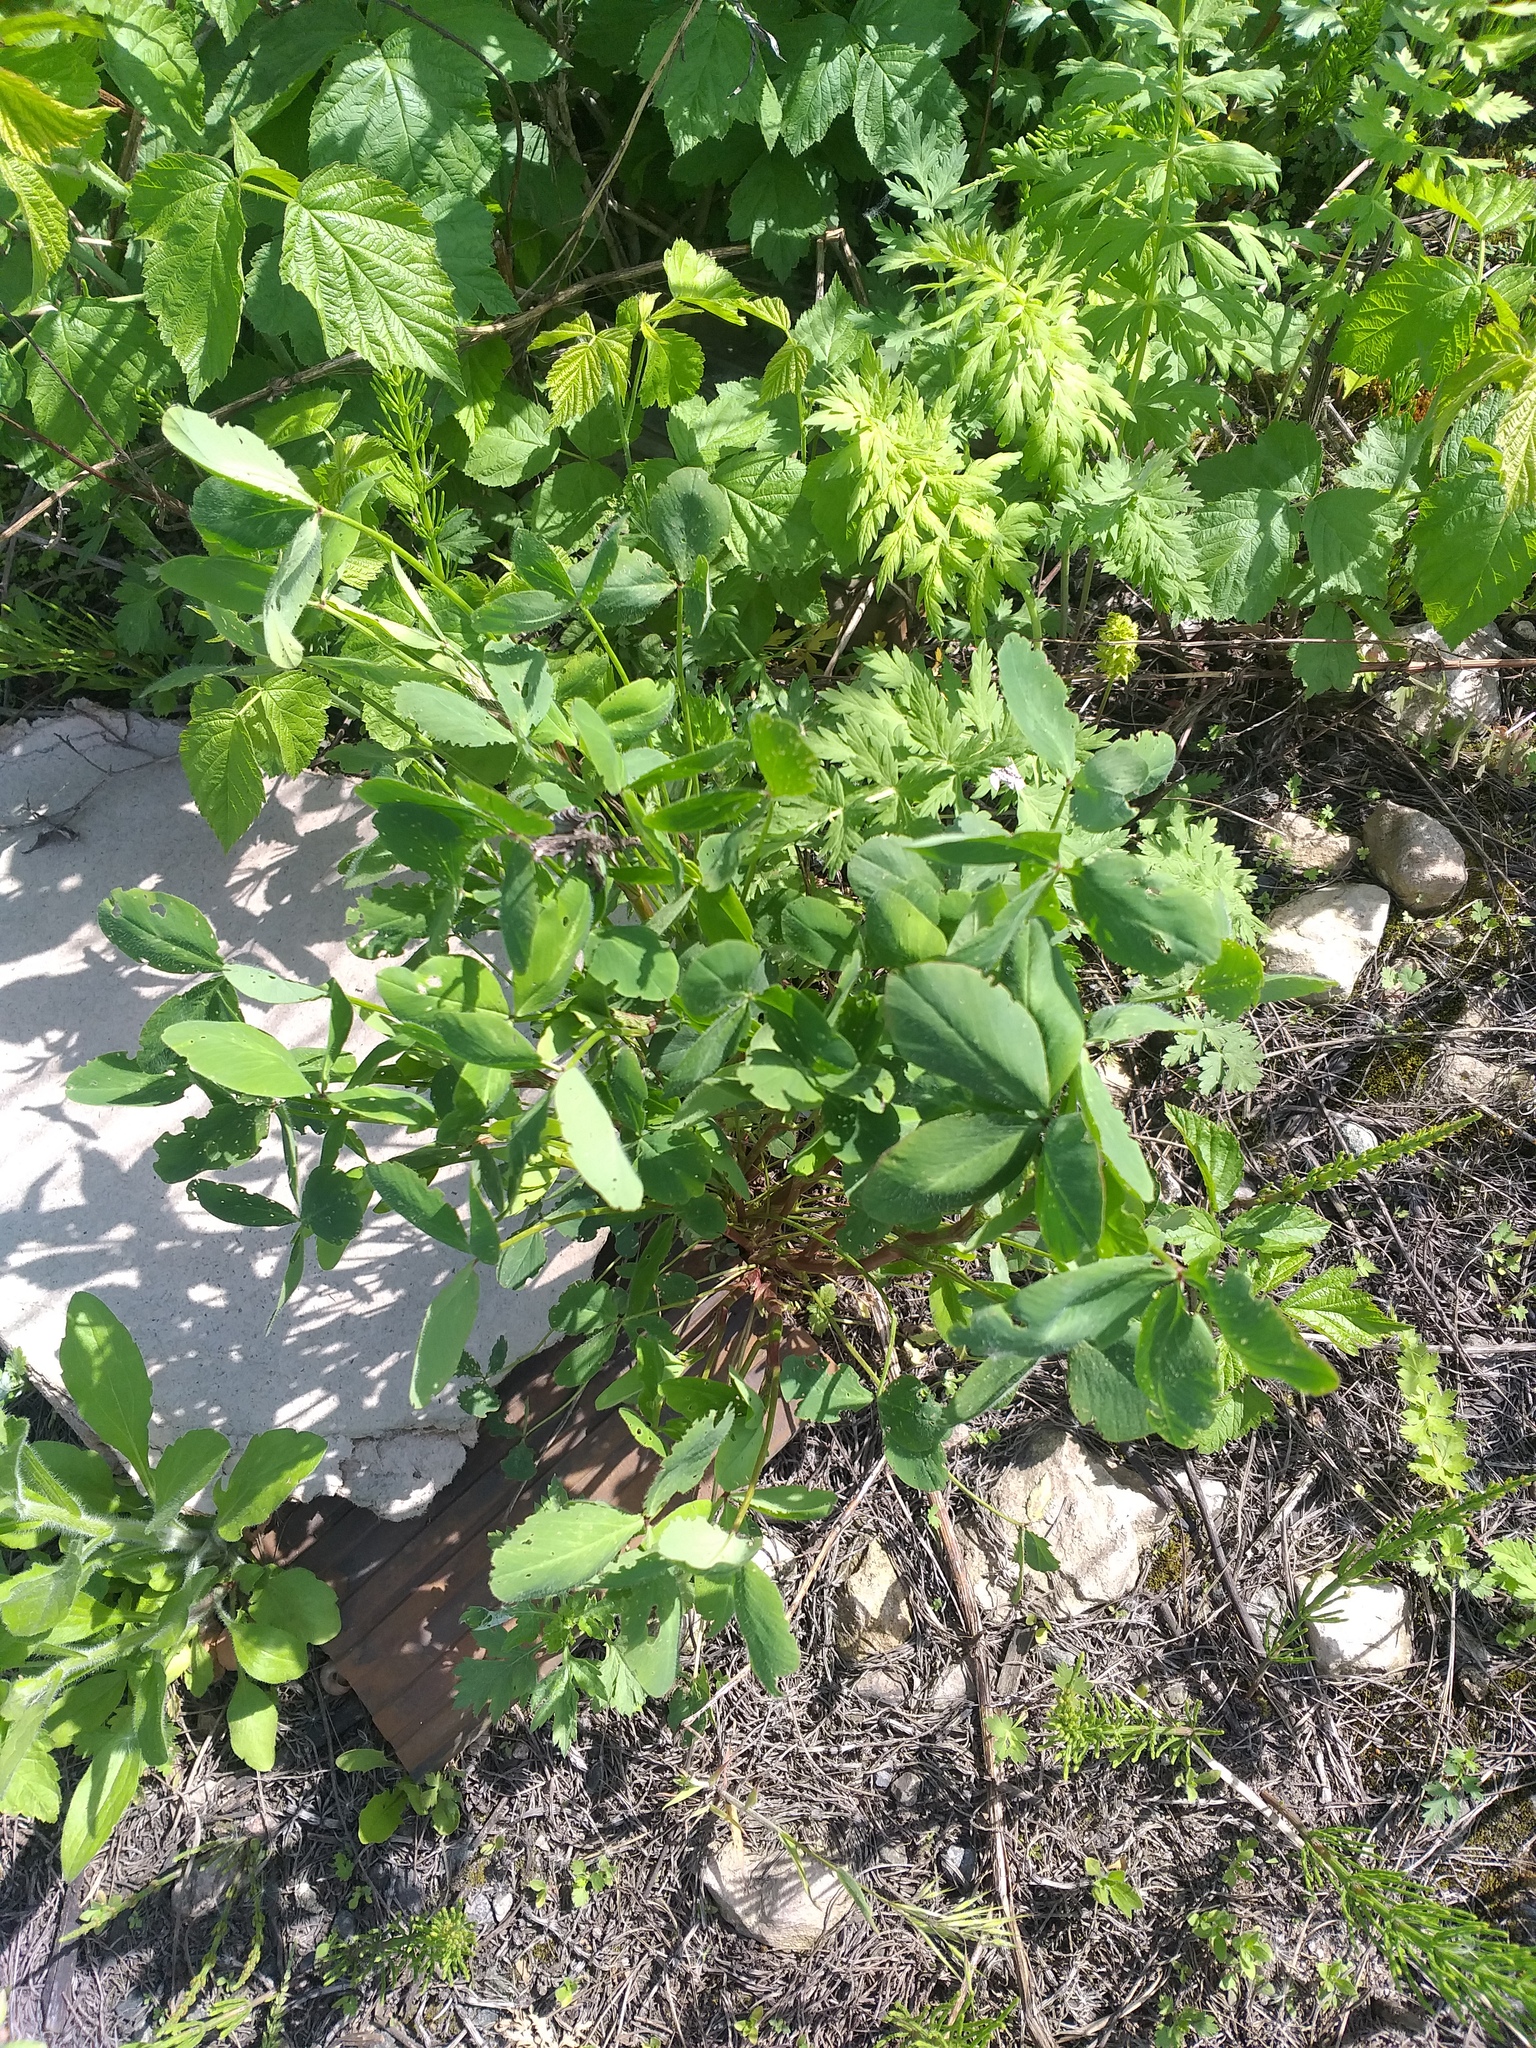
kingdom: Plantae
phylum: Tracheophyta
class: Magnoliopsida
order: Fabales
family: Fabaceae
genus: Trifolium
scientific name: Trifolium pratense
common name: Red clover
